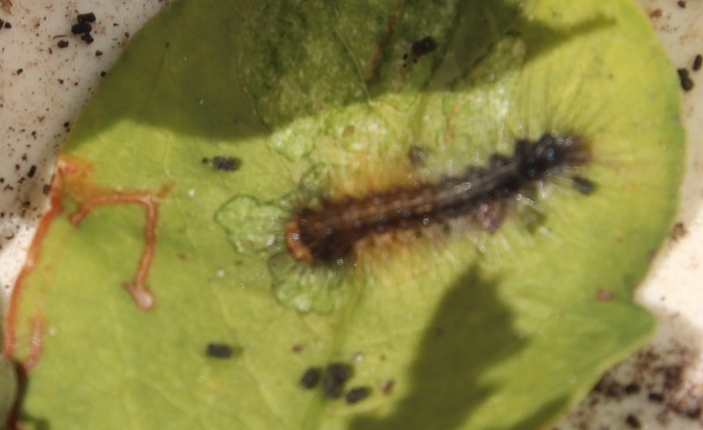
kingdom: Animalia
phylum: Arthropoda
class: Insecta
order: Lepidoptera
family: Erebidae
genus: Rhodogastria
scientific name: Rhodogastria amasis
